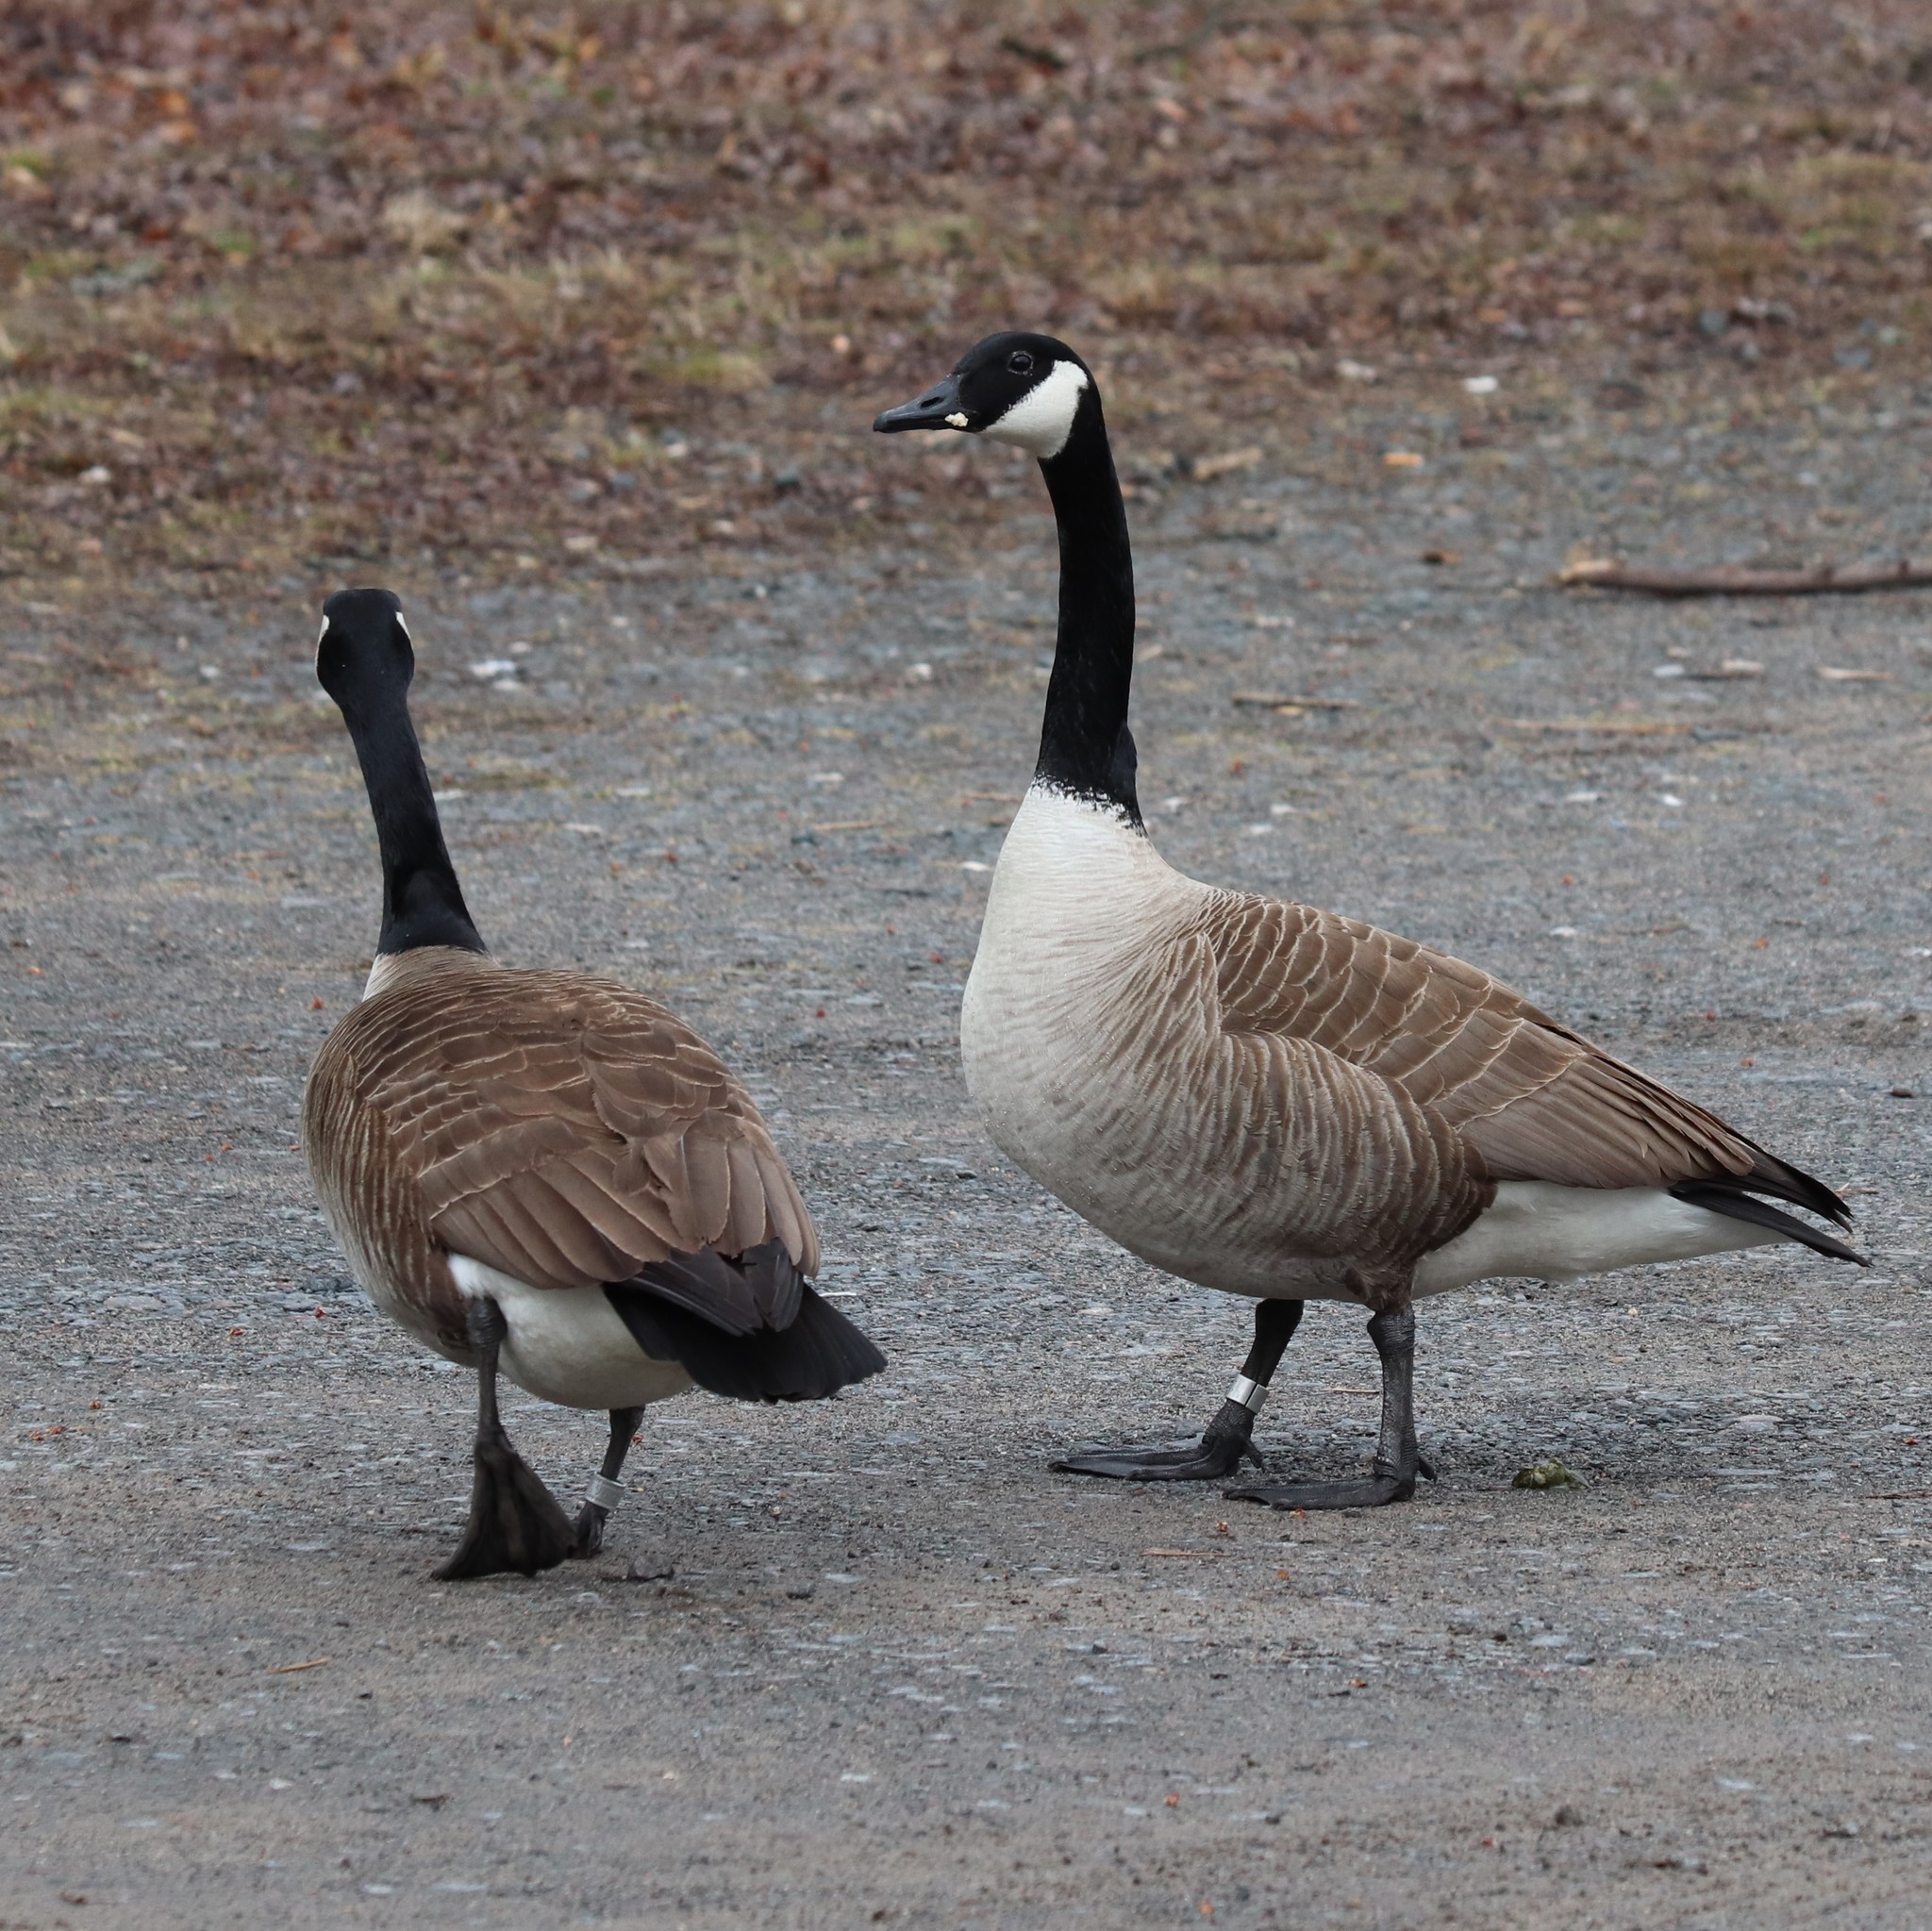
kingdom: Animalia
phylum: Chordata
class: Aves
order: Anseriformes
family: Anatidae
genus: Branta
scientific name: Branta canadensis
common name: Canada goose
